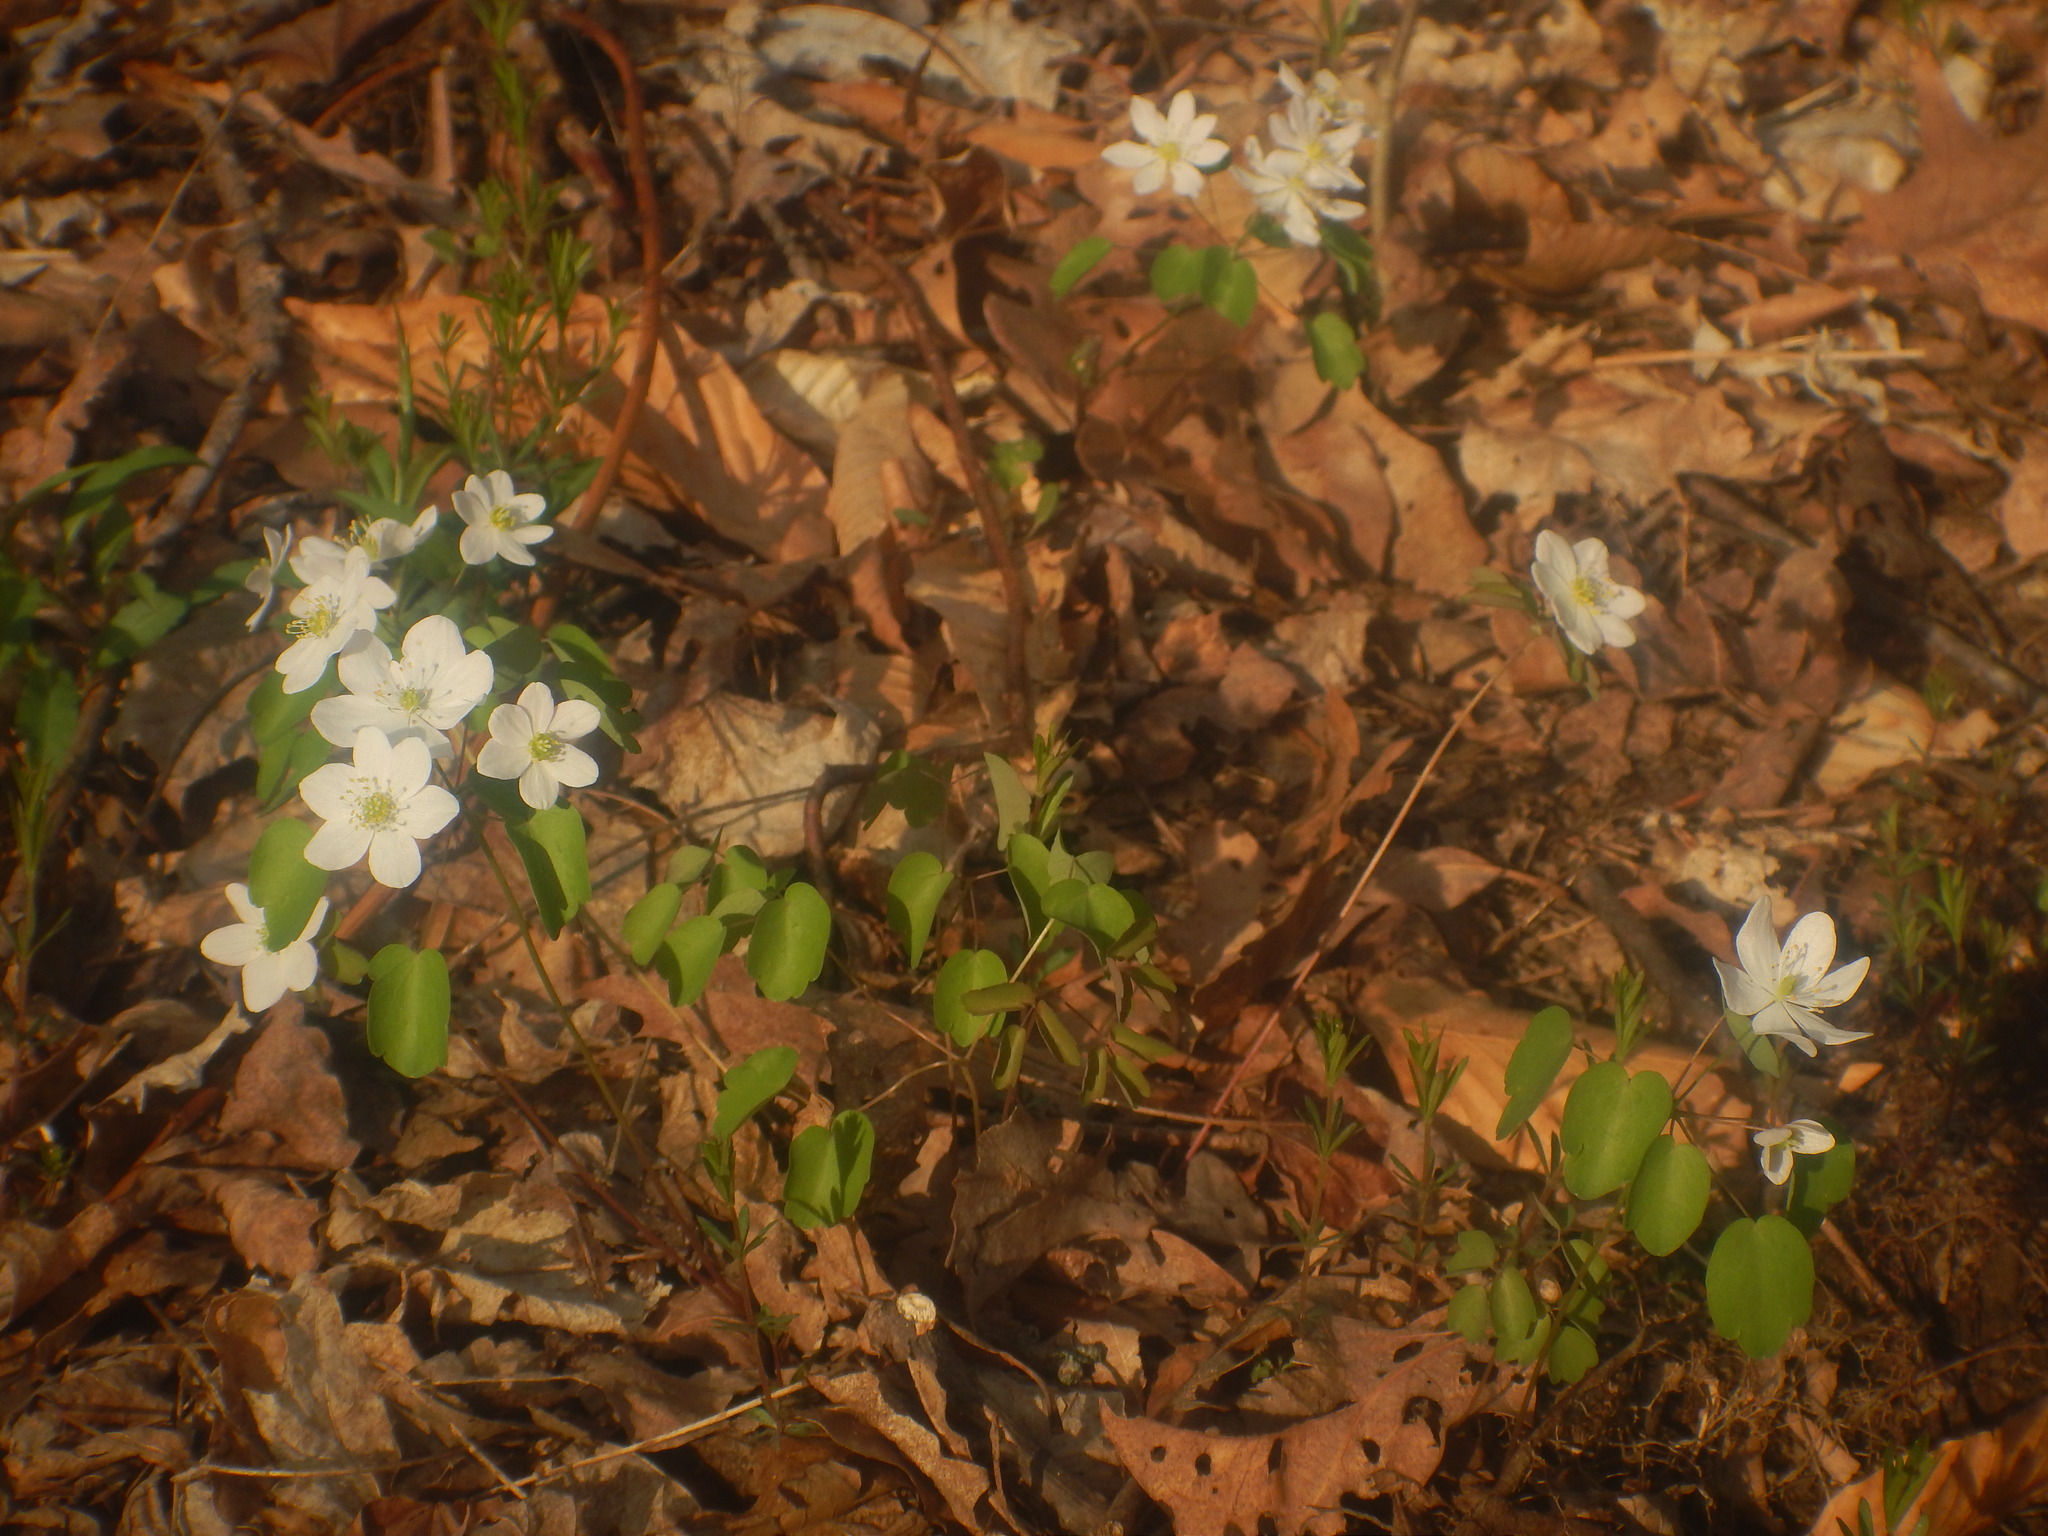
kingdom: Plantae
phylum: Tracheophyta
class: Magnoliopsida
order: Ranunculales
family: Ranunculaceae
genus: Thalictrum
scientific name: Thalictrum thalictroides
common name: Rue-anemone
